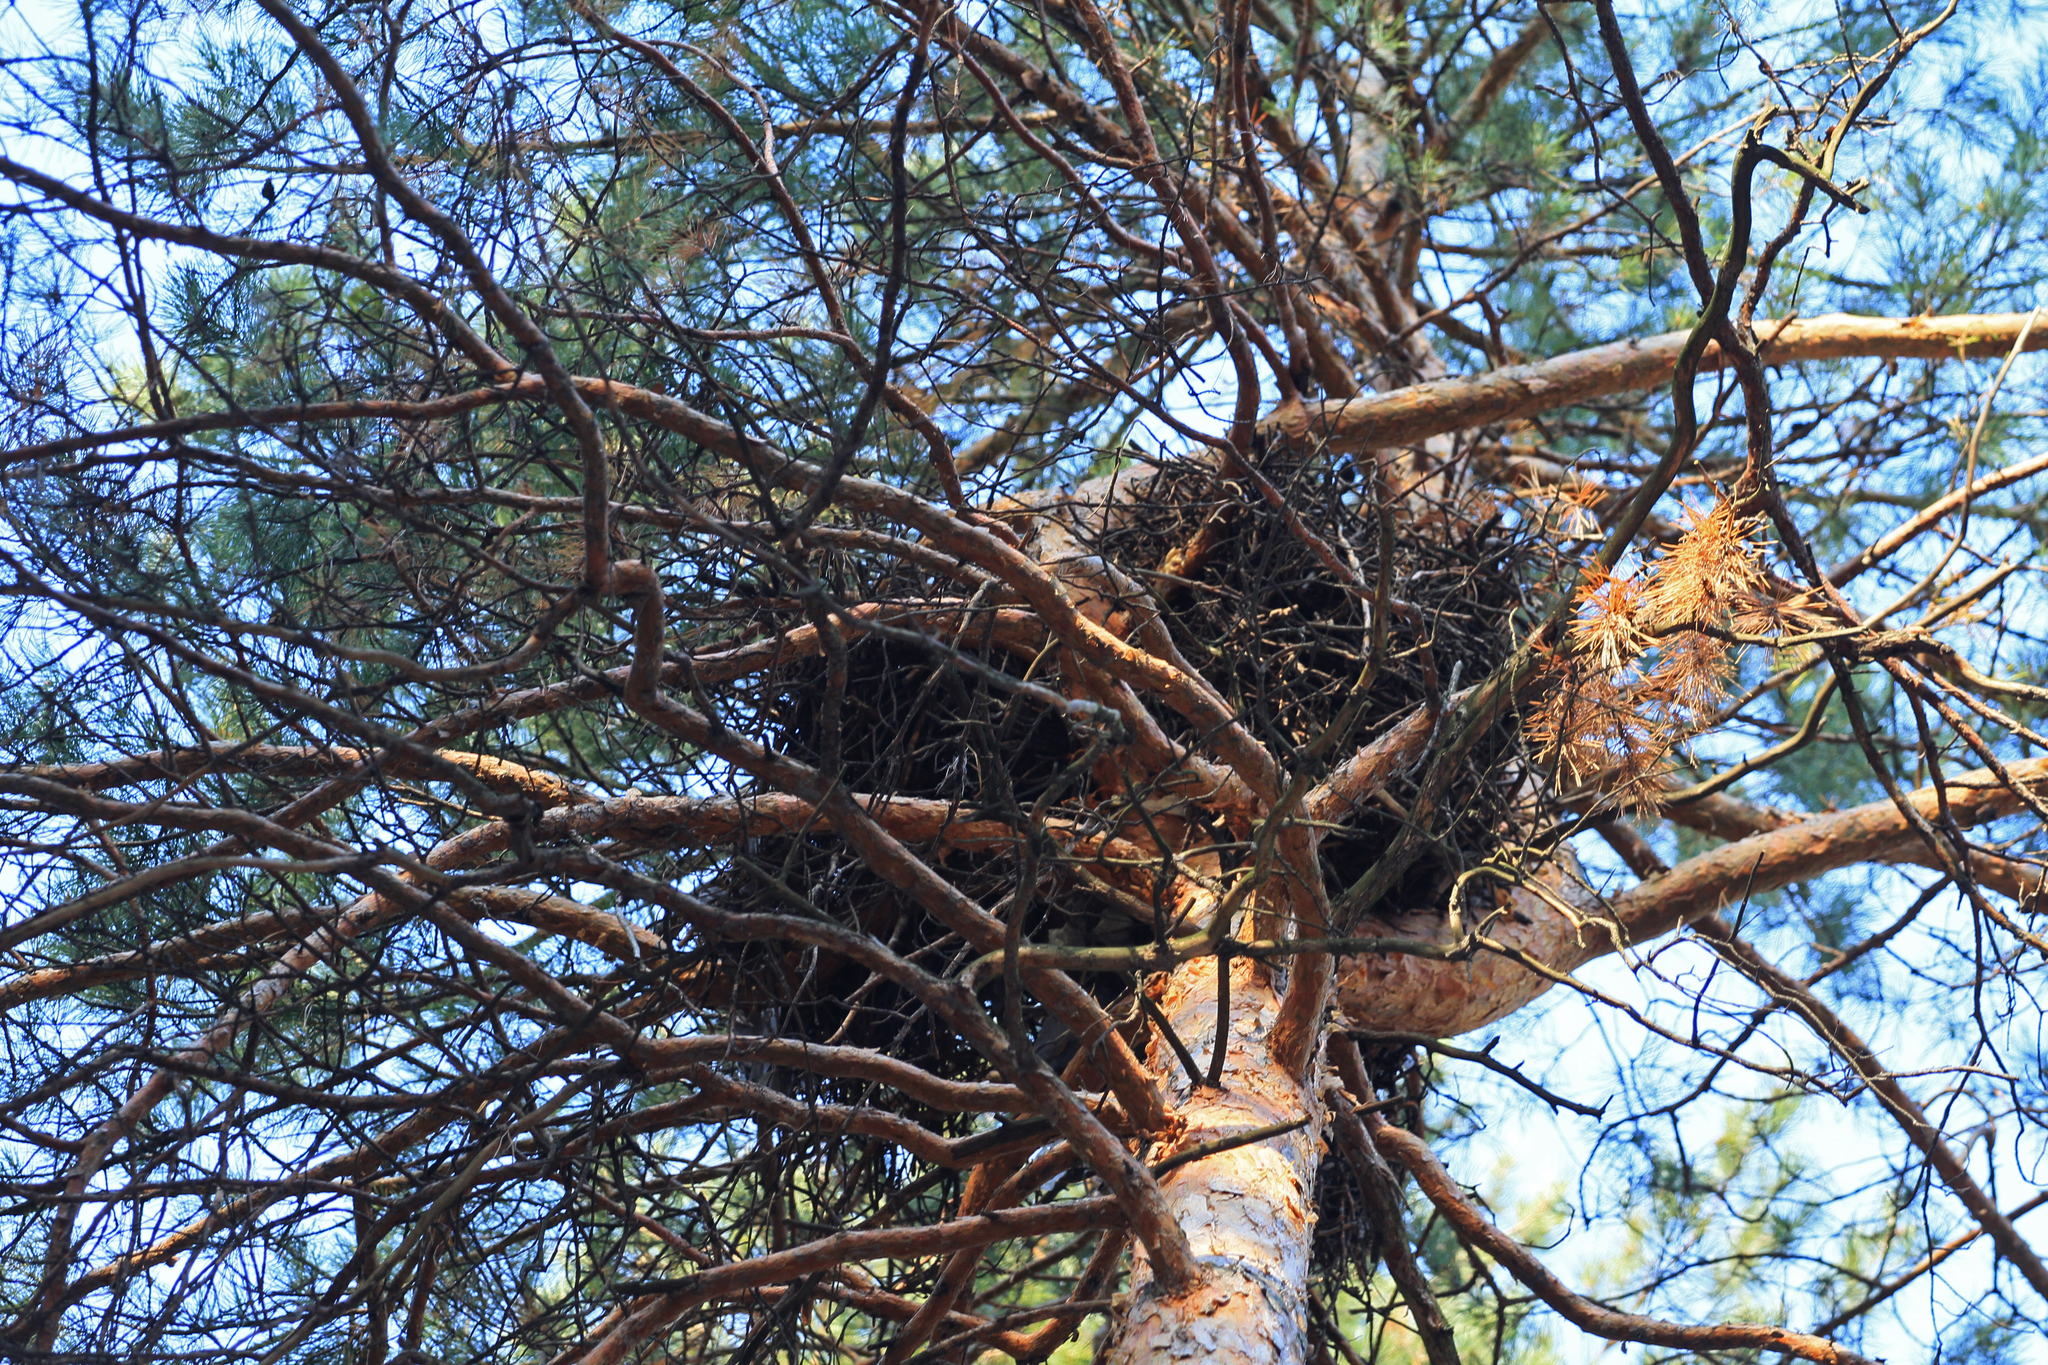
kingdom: Animalia
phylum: Chordata
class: Aves
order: Accipitriformes
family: Accipitridae
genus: Milvus
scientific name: Milvus migrans
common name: Black kite
